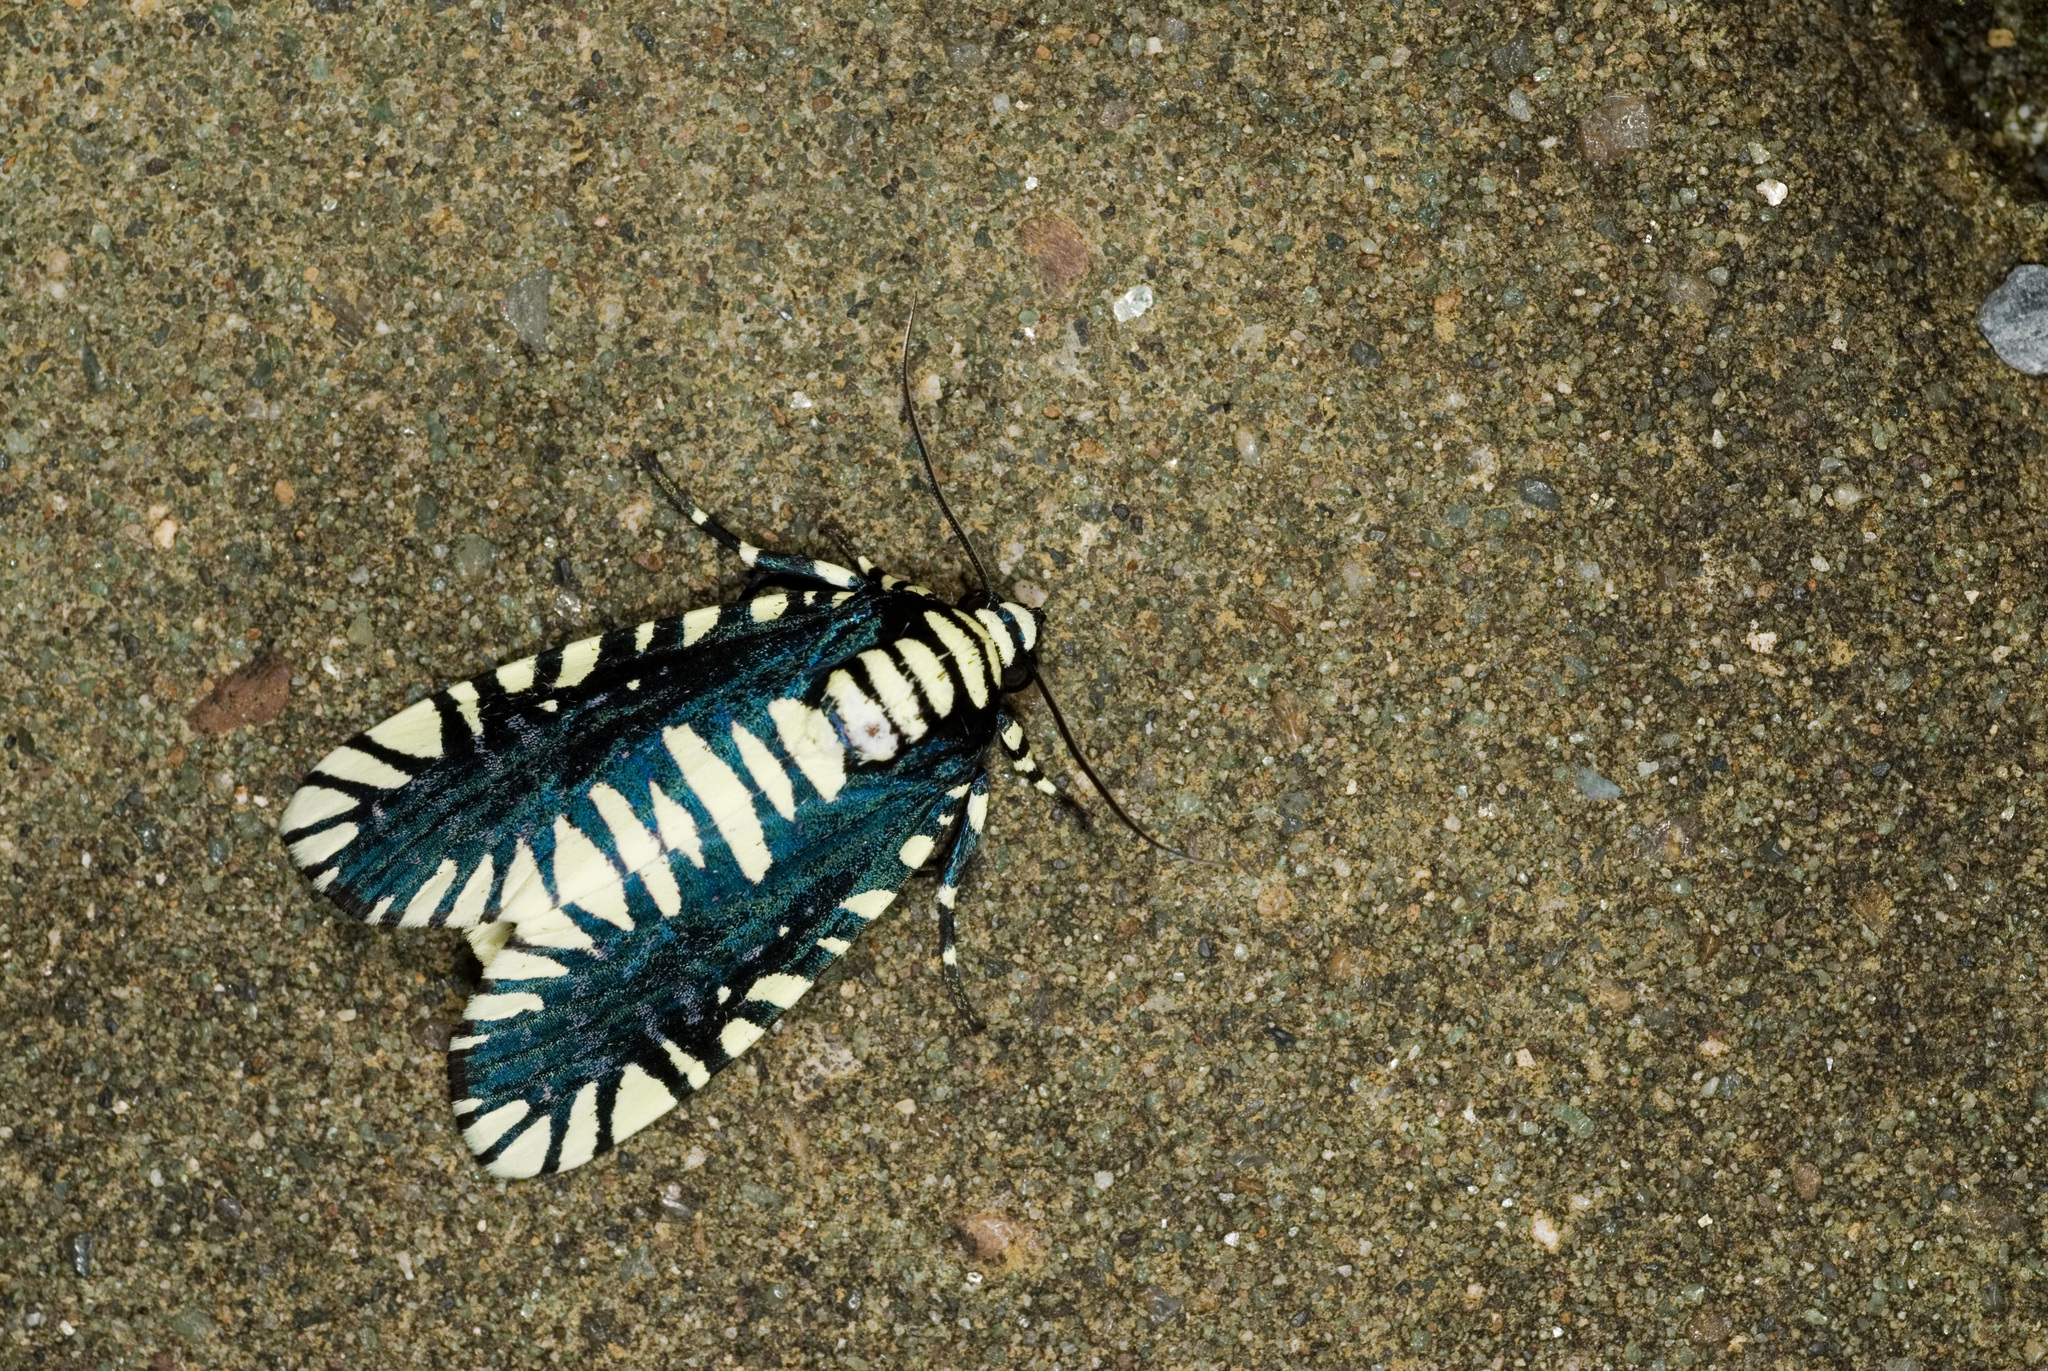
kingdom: Animalia
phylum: Arthropoda
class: Insecta
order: Lepidoptera
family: Noctuidae
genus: Apsarasa
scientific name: Apsarasa radians
